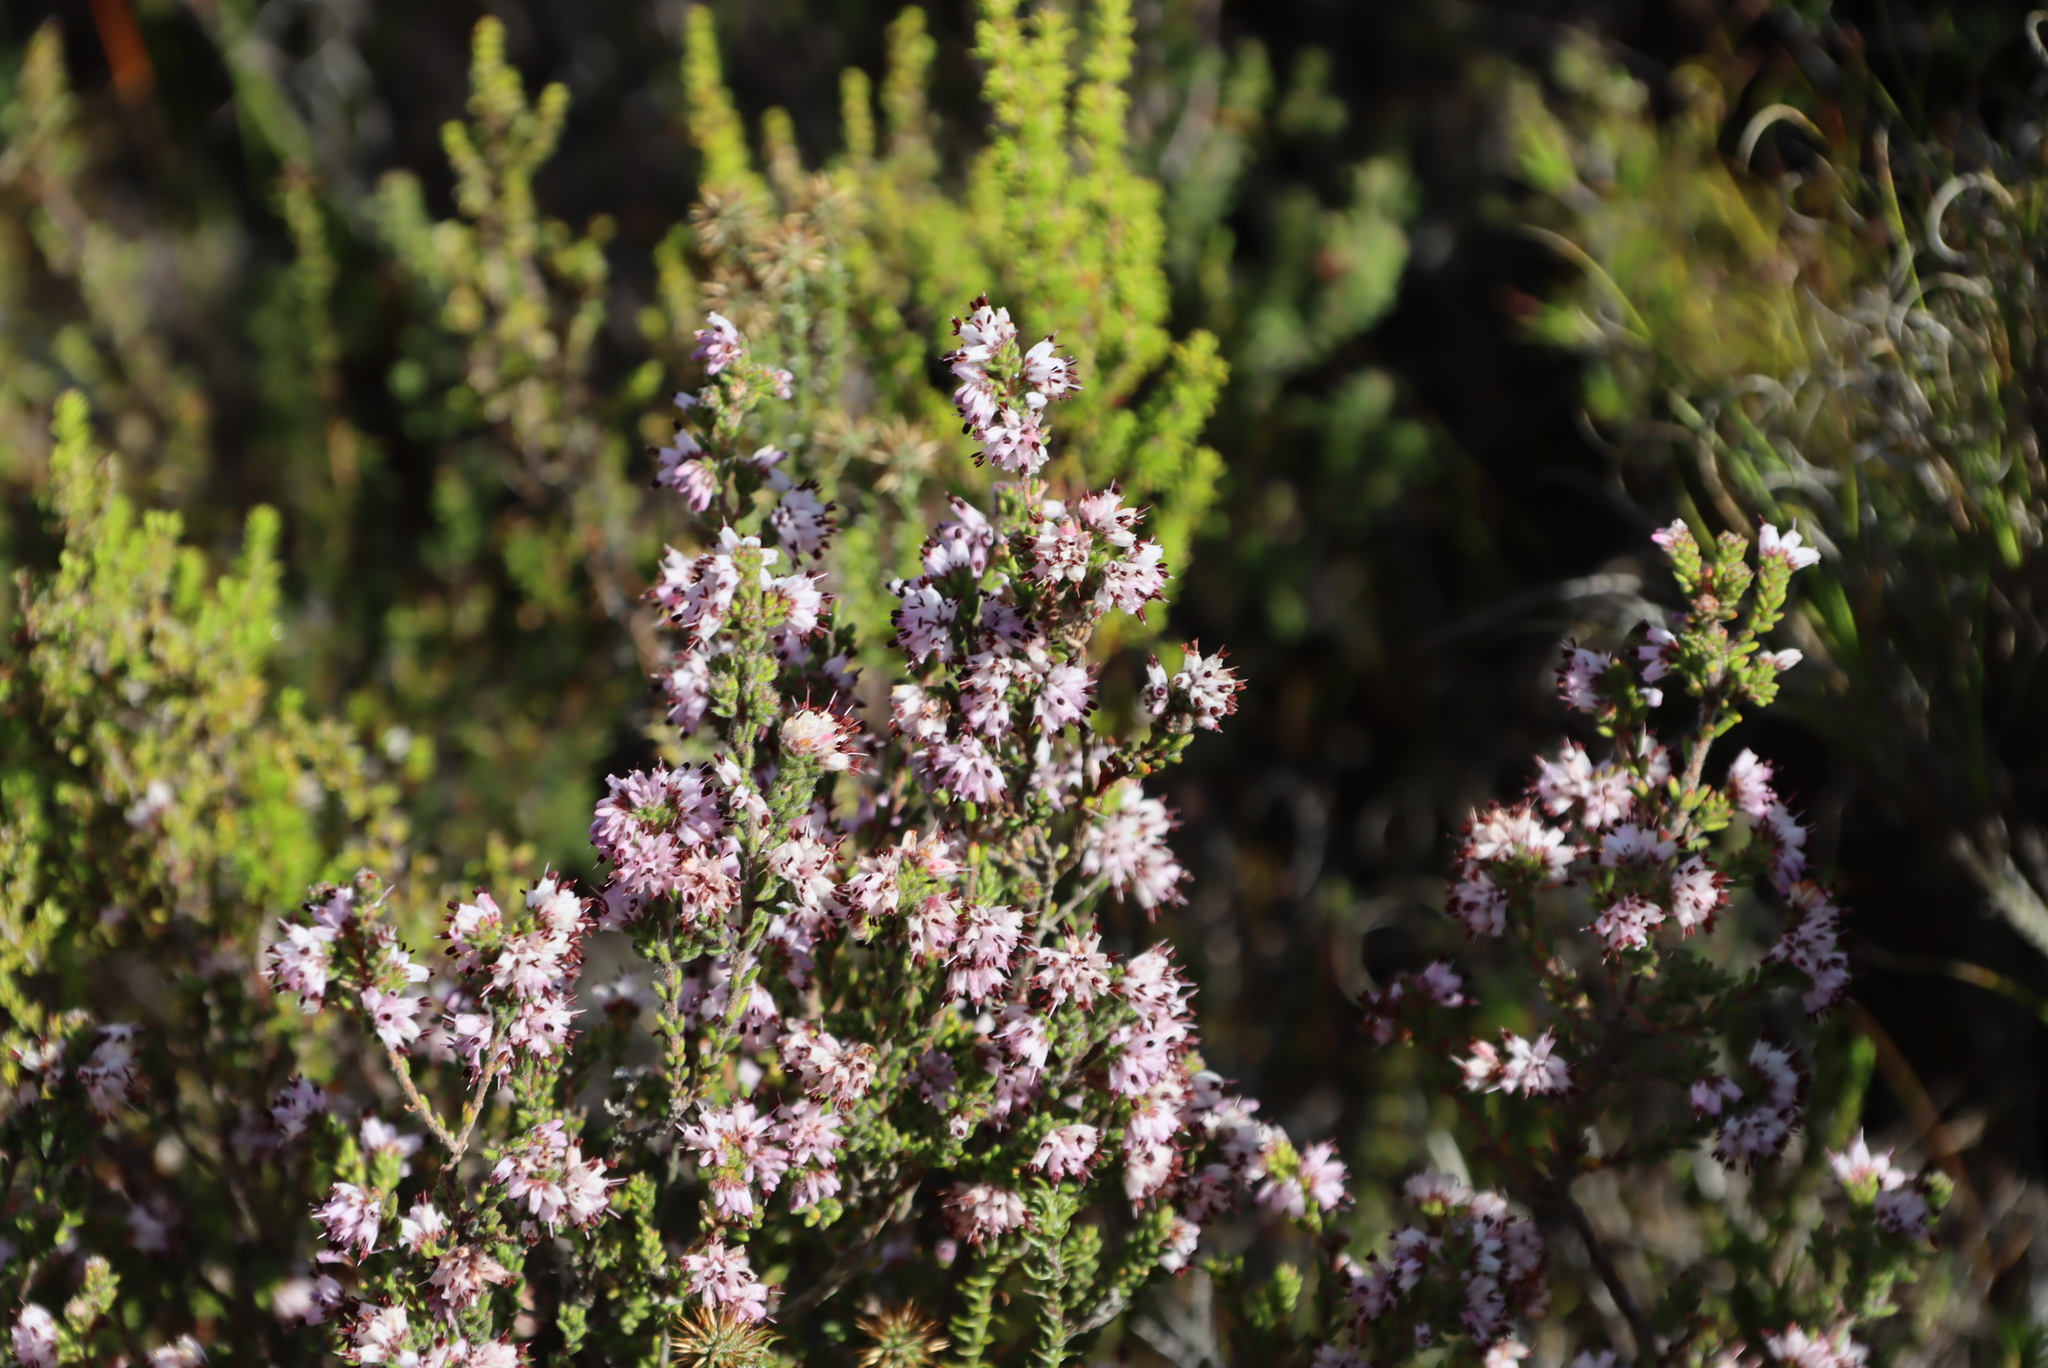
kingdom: Plantae
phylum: Tracheophyta
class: Magnoliopsida
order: Ericales
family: Ericaceae
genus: Erica
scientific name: Erica ericoides
